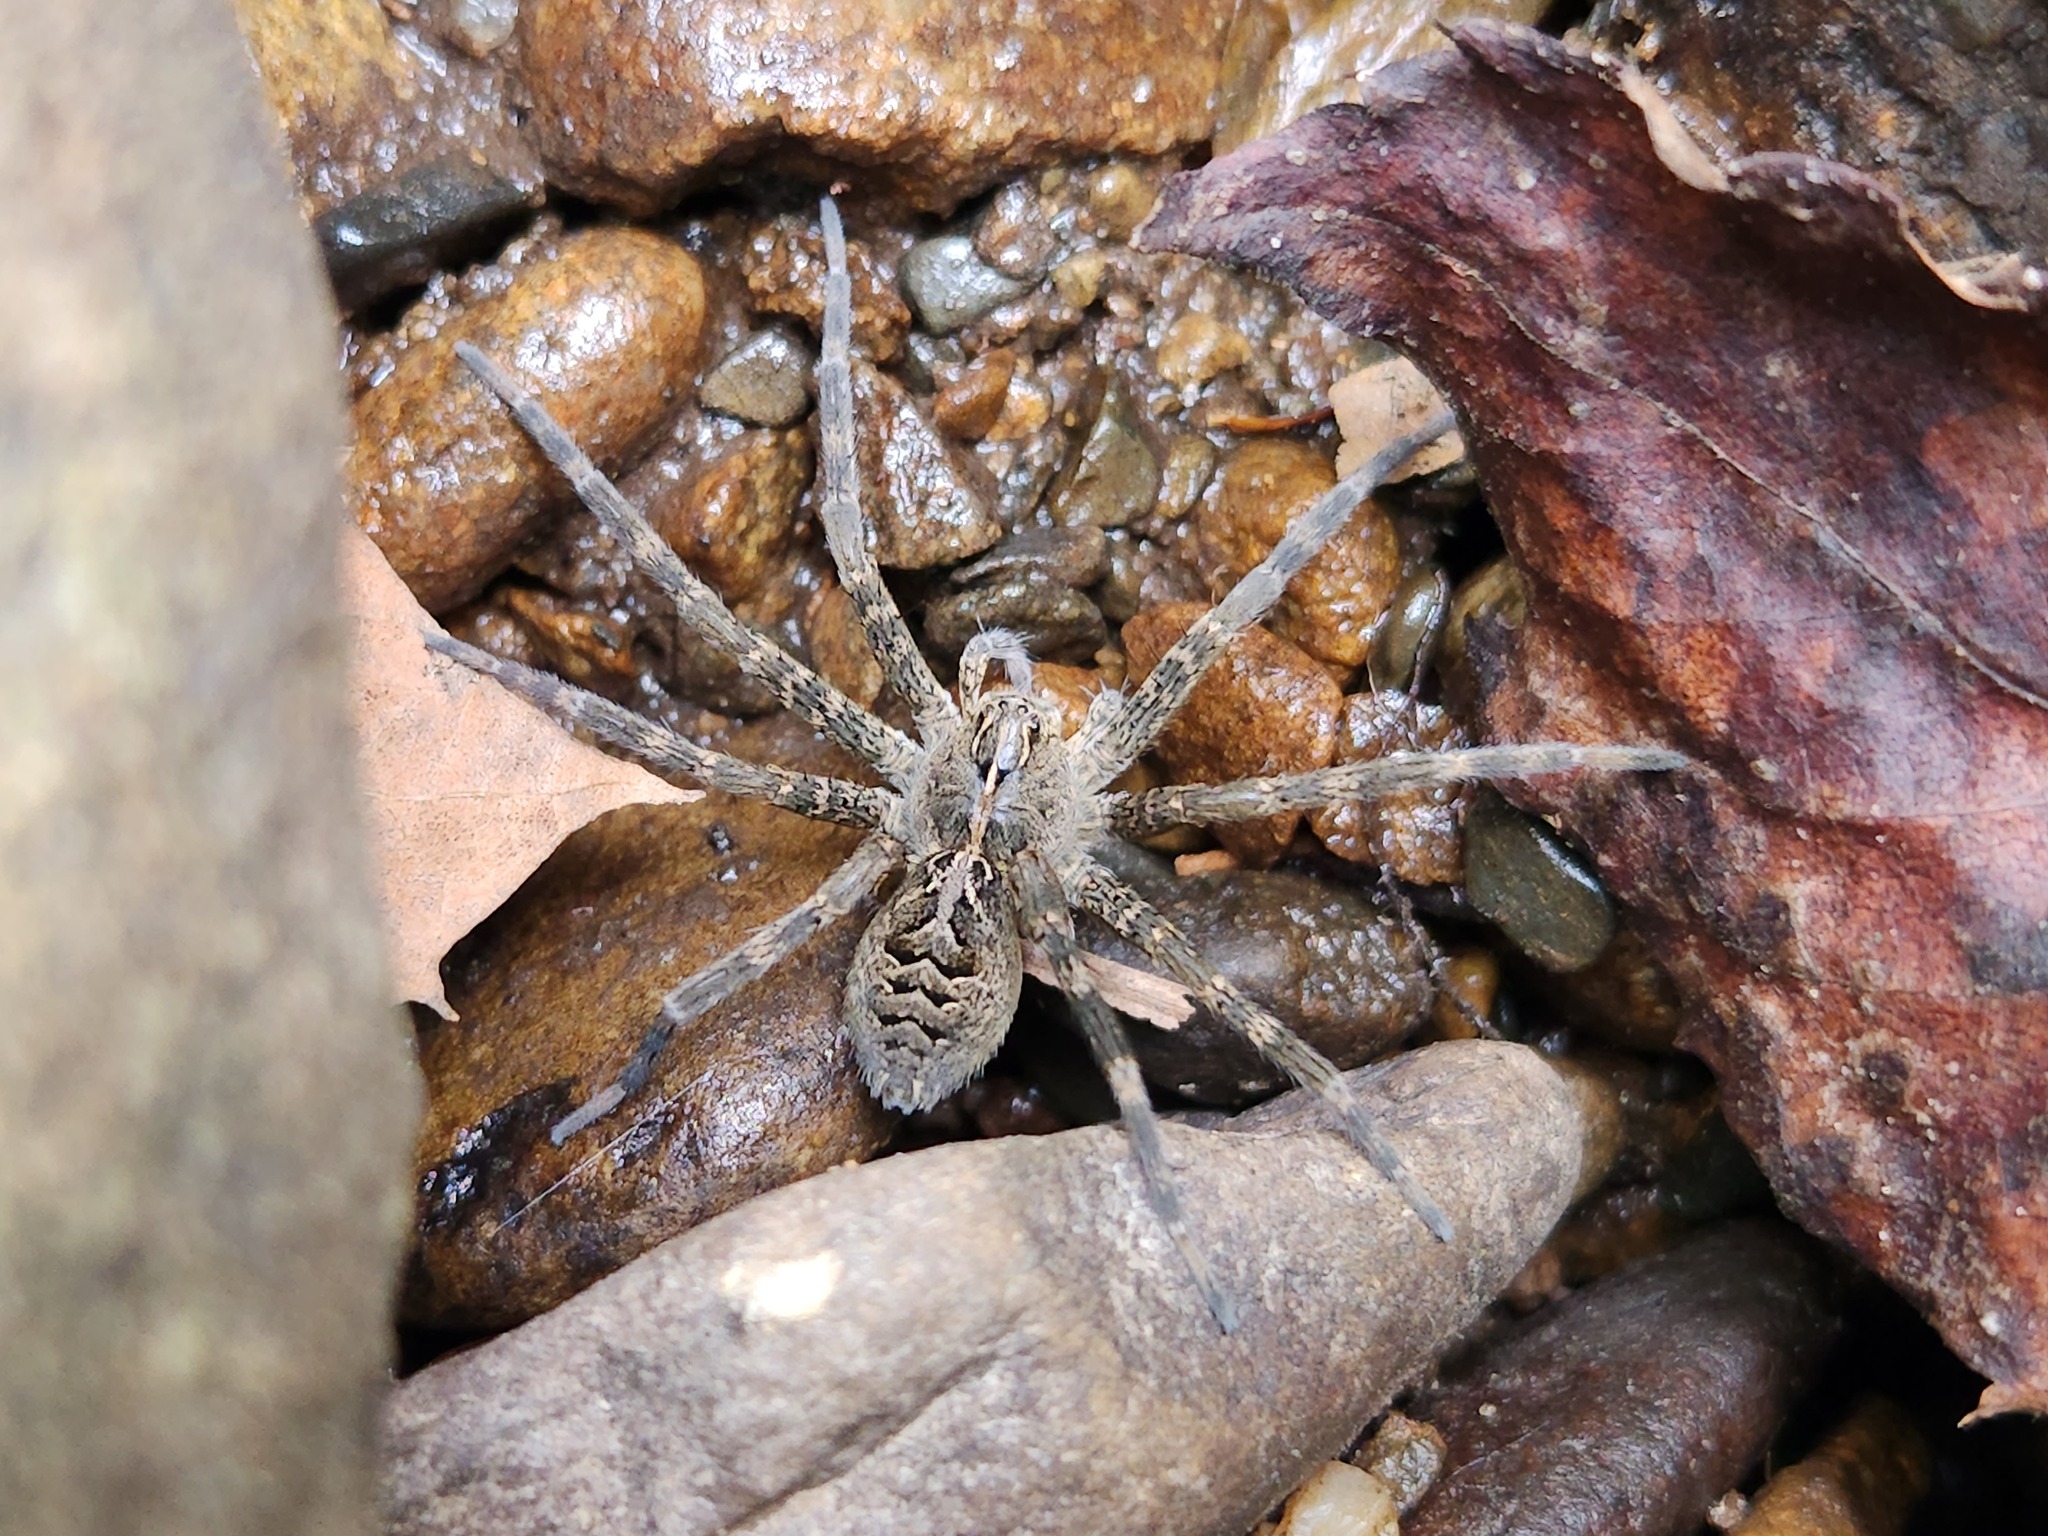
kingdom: Animalia
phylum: Arthropoda
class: Arachnida
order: Araneae
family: Pisauridae
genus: Dolomedes
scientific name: Dolomedes scriptus
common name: Striped fishing spider
